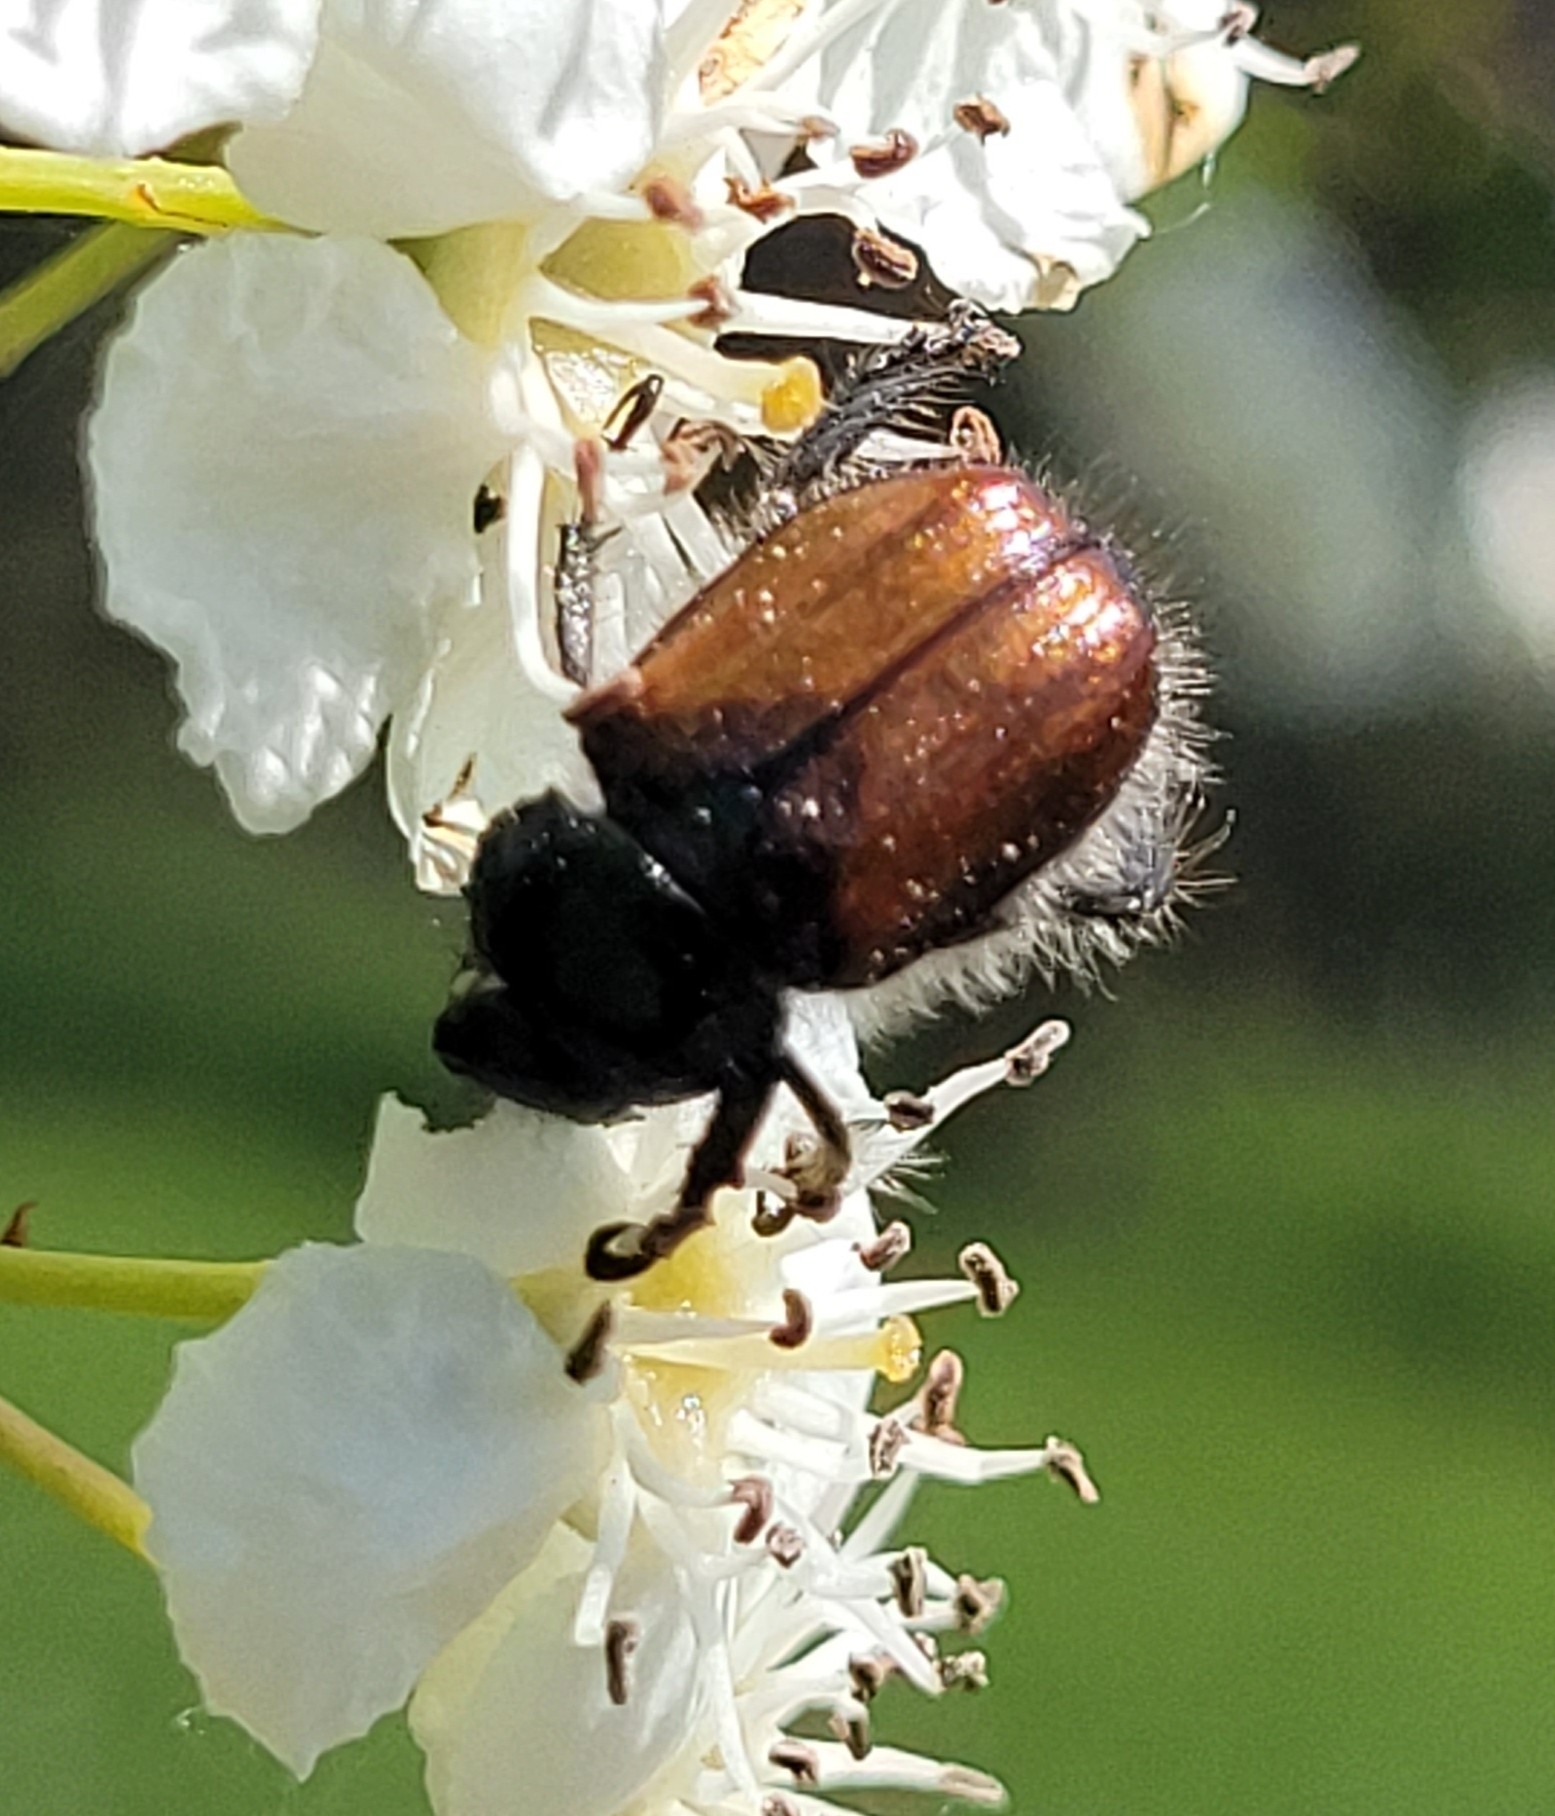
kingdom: Animalia
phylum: Arthropoda
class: Insecta
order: Coleoptera
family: Scarabaeidae
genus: Phyllopertha
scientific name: Phyllopertha horticola
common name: Garden chafer
